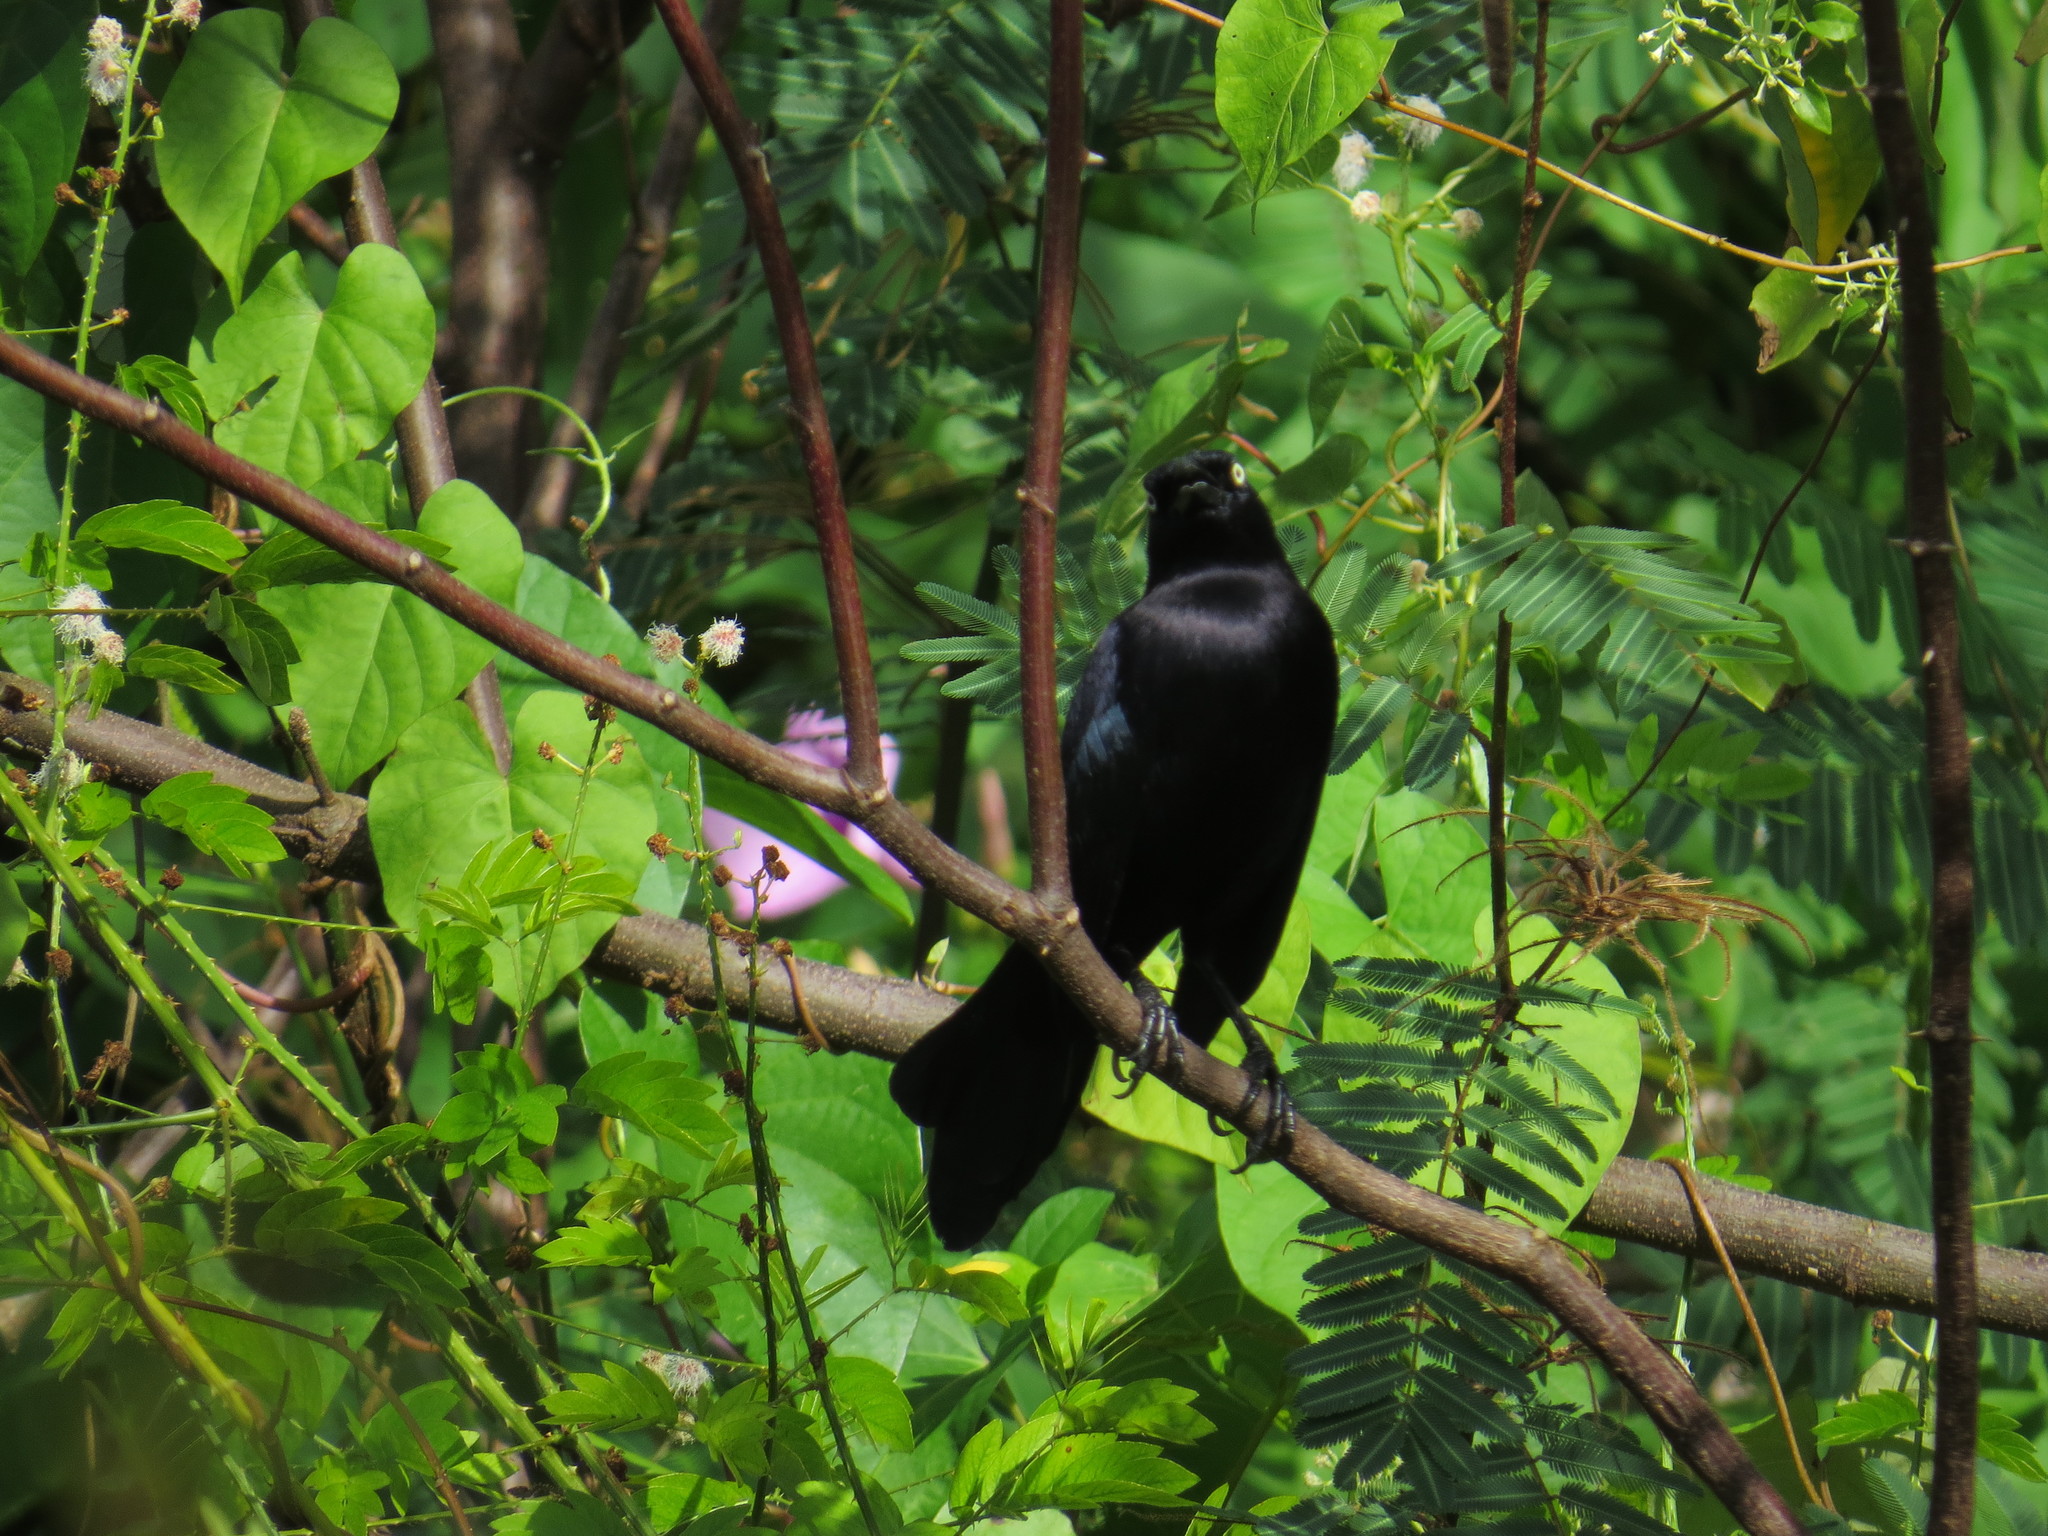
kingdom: Animalia
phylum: Chordata
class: Aves
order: Passeriformes
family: Icteridae
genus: Quiscalus
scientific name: Quiscalus lugubris
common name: Carib grackle
